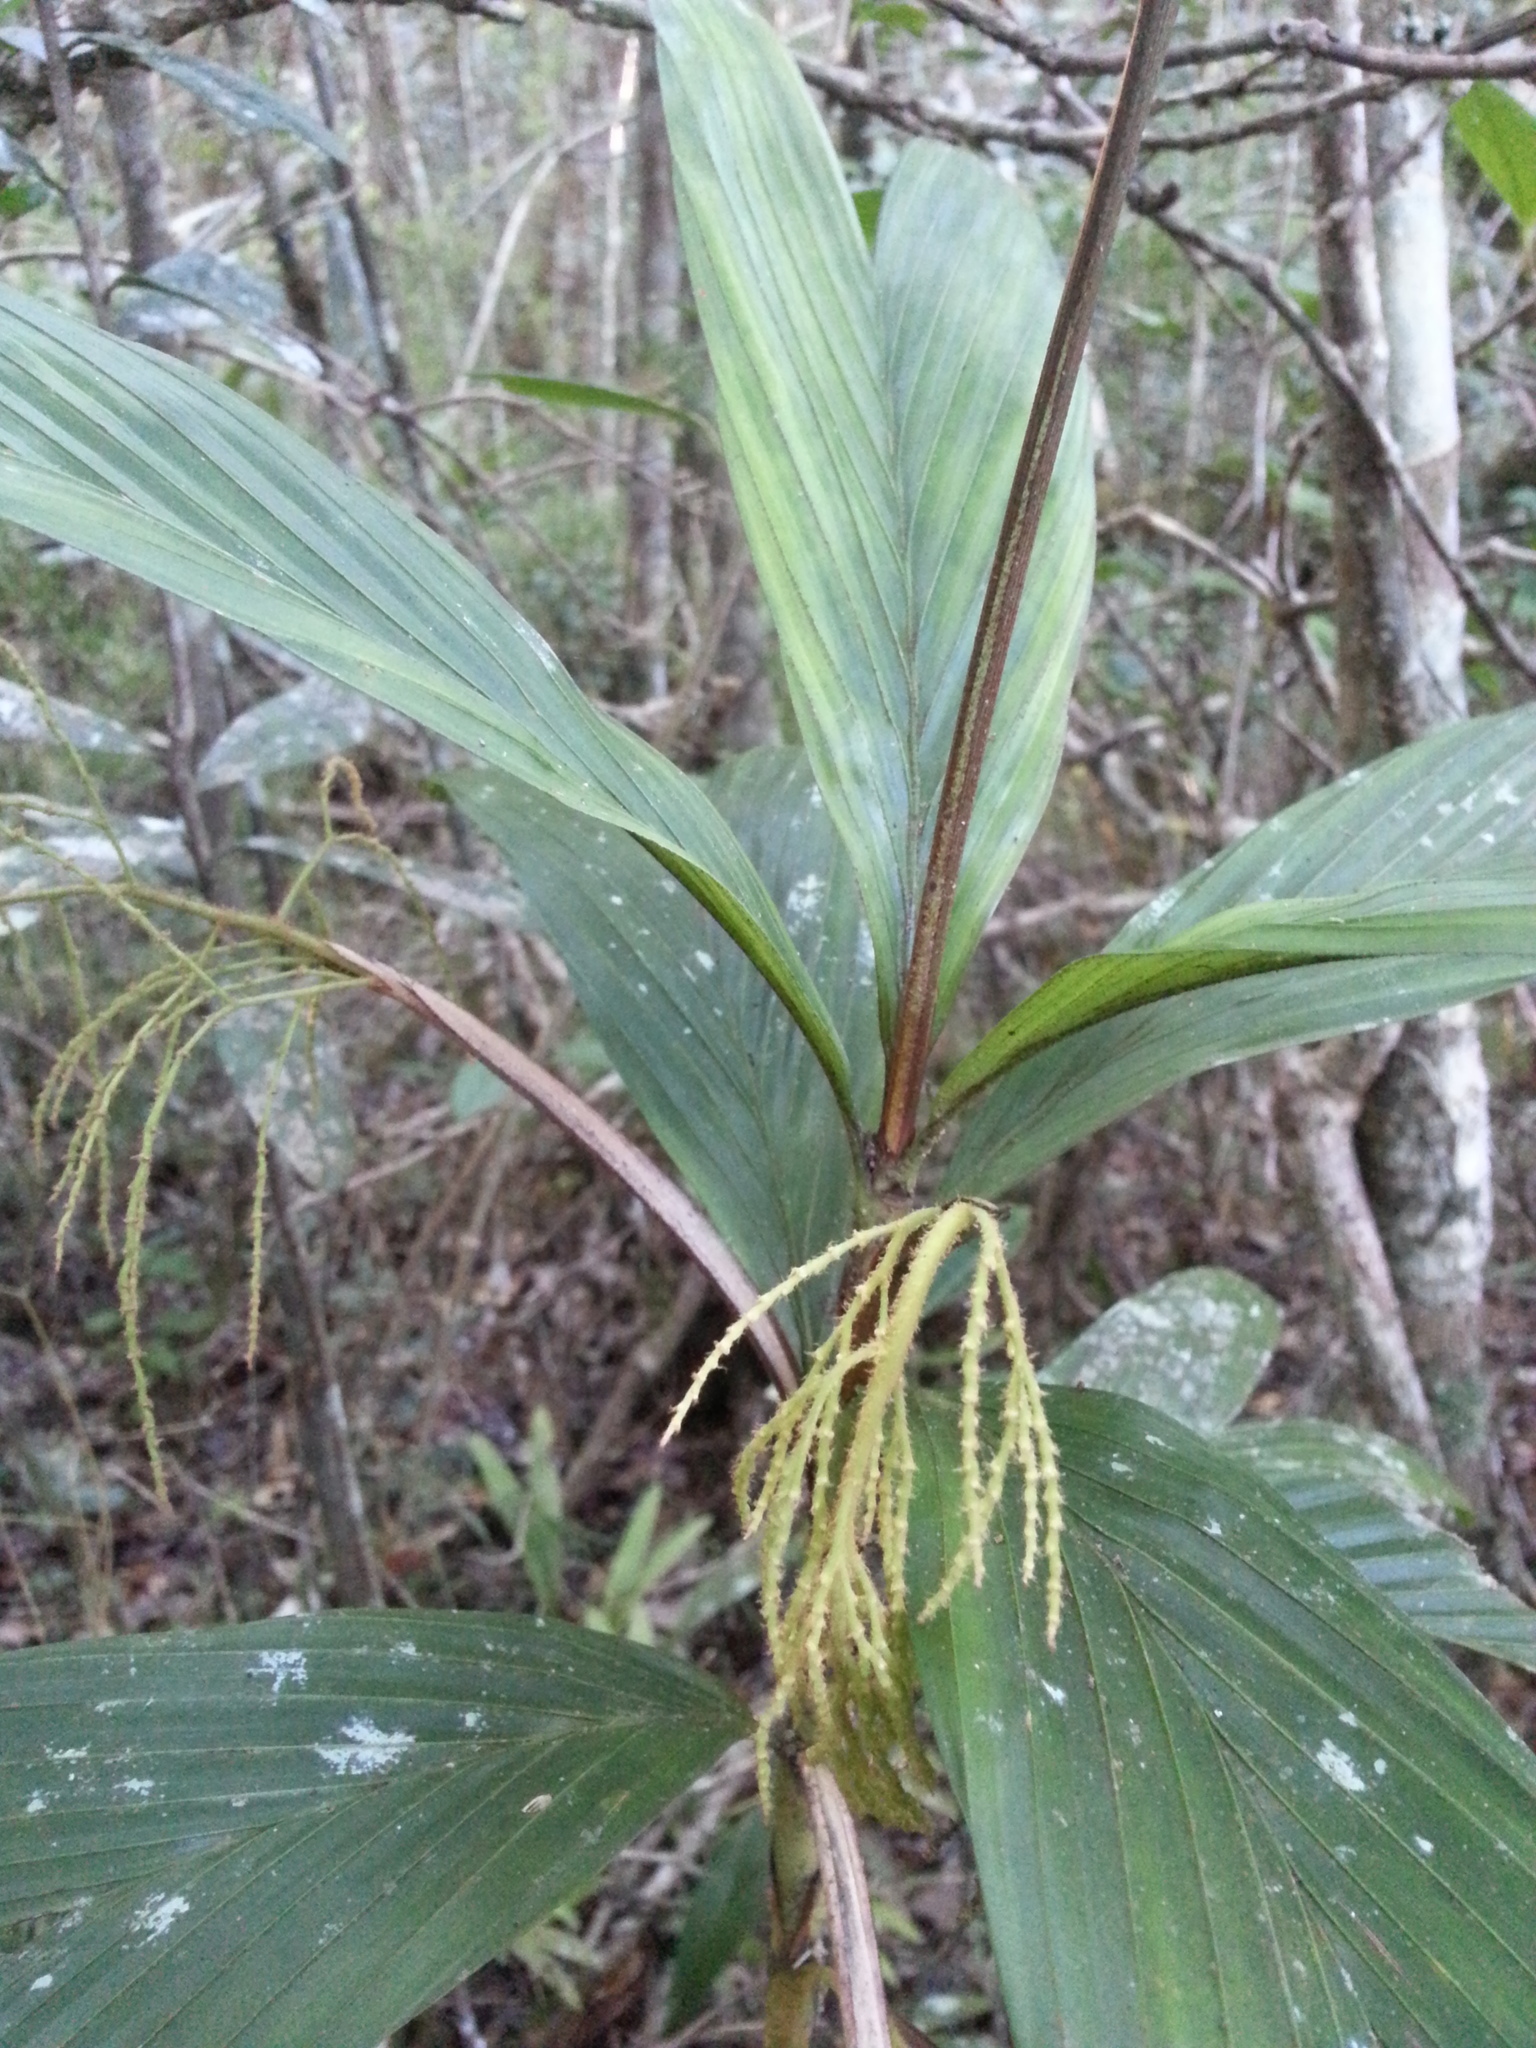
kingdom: Plantae
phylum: Tracheophyta
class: Liliopsida
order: Arecales
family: Arecaceae
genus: Dypsis
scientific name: Dypsis hildebrandtii
